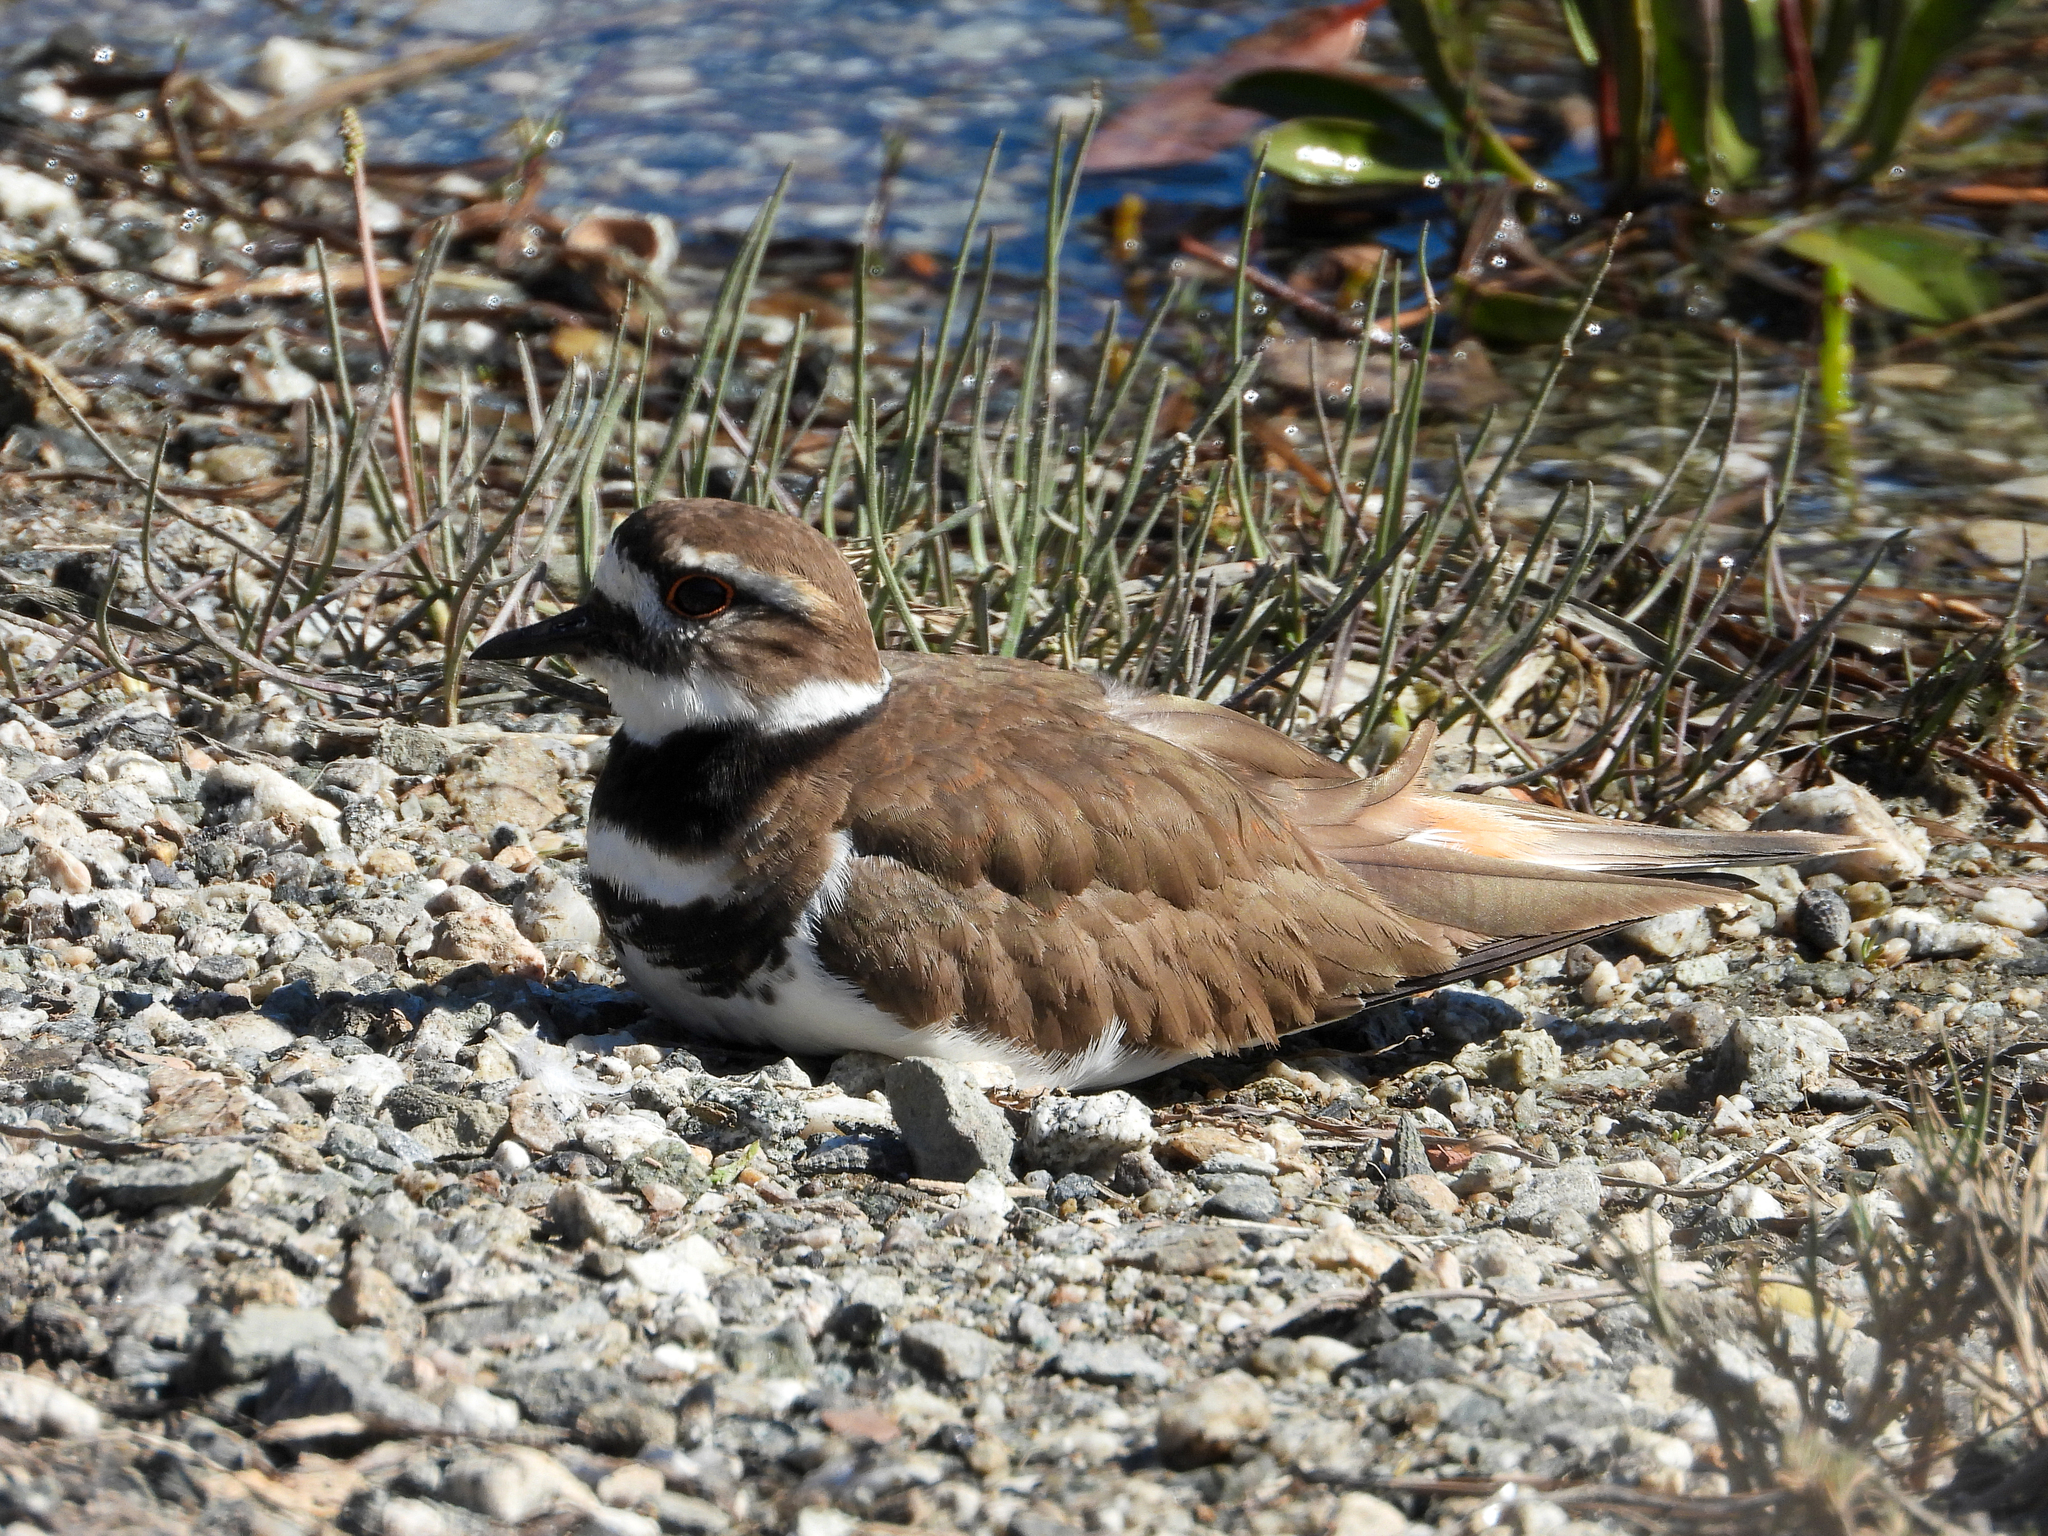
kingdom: Animalia
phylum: Chordata
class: Aves
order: Charadriiformes
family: Charadriidae
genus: Charadrius
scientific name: Charadrius vociferus
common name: Killdeer
